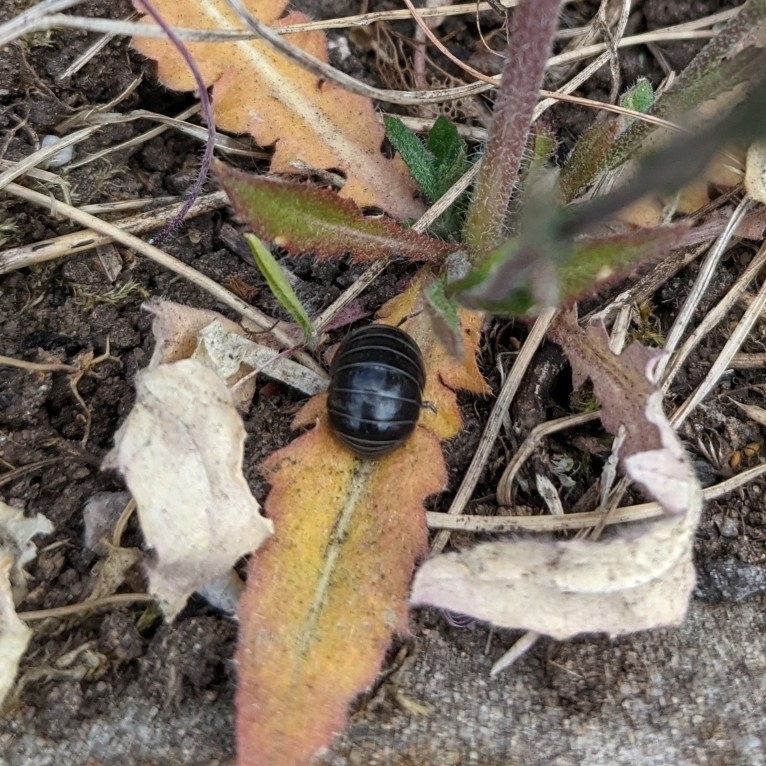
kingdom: Animalia
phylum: Arthropoda
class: Malacostraca
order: Isopoda
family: Armadillidiidae
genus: Armadillidium
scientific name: Armadillidium vulgare
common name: Common pill woodlouse
